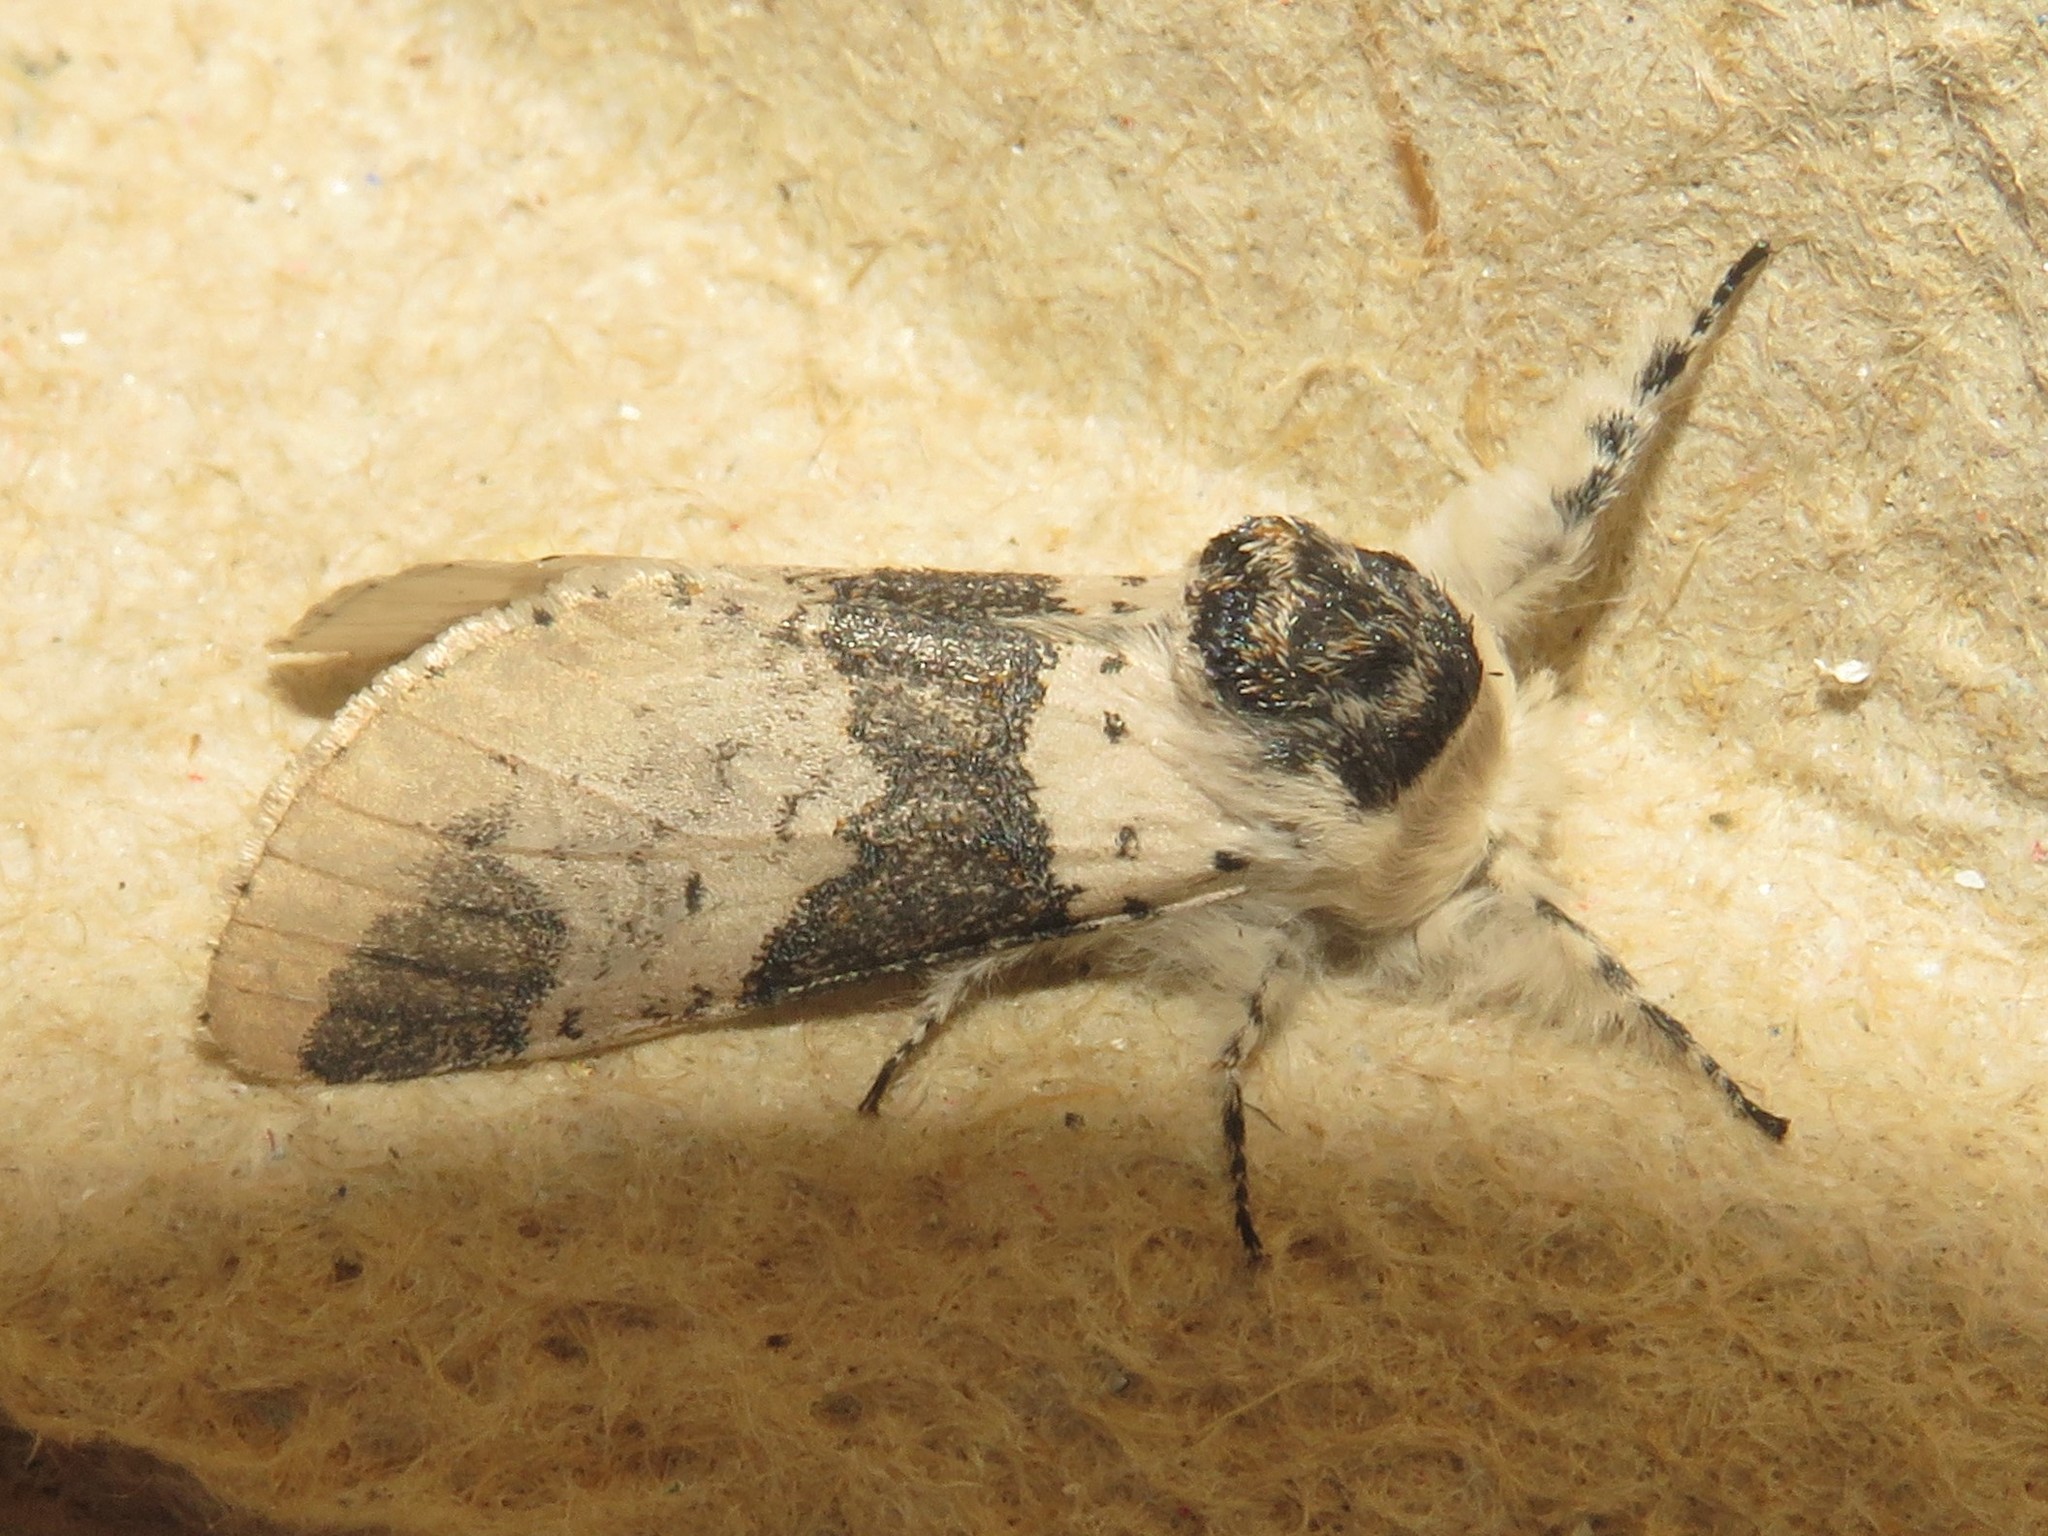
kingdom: Animalia
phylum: Arthropoda
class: Insecta
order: Lepidoptera
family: Notodontidae
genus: Furcula
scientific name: Furcula modesta
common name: Modest furcula moth
